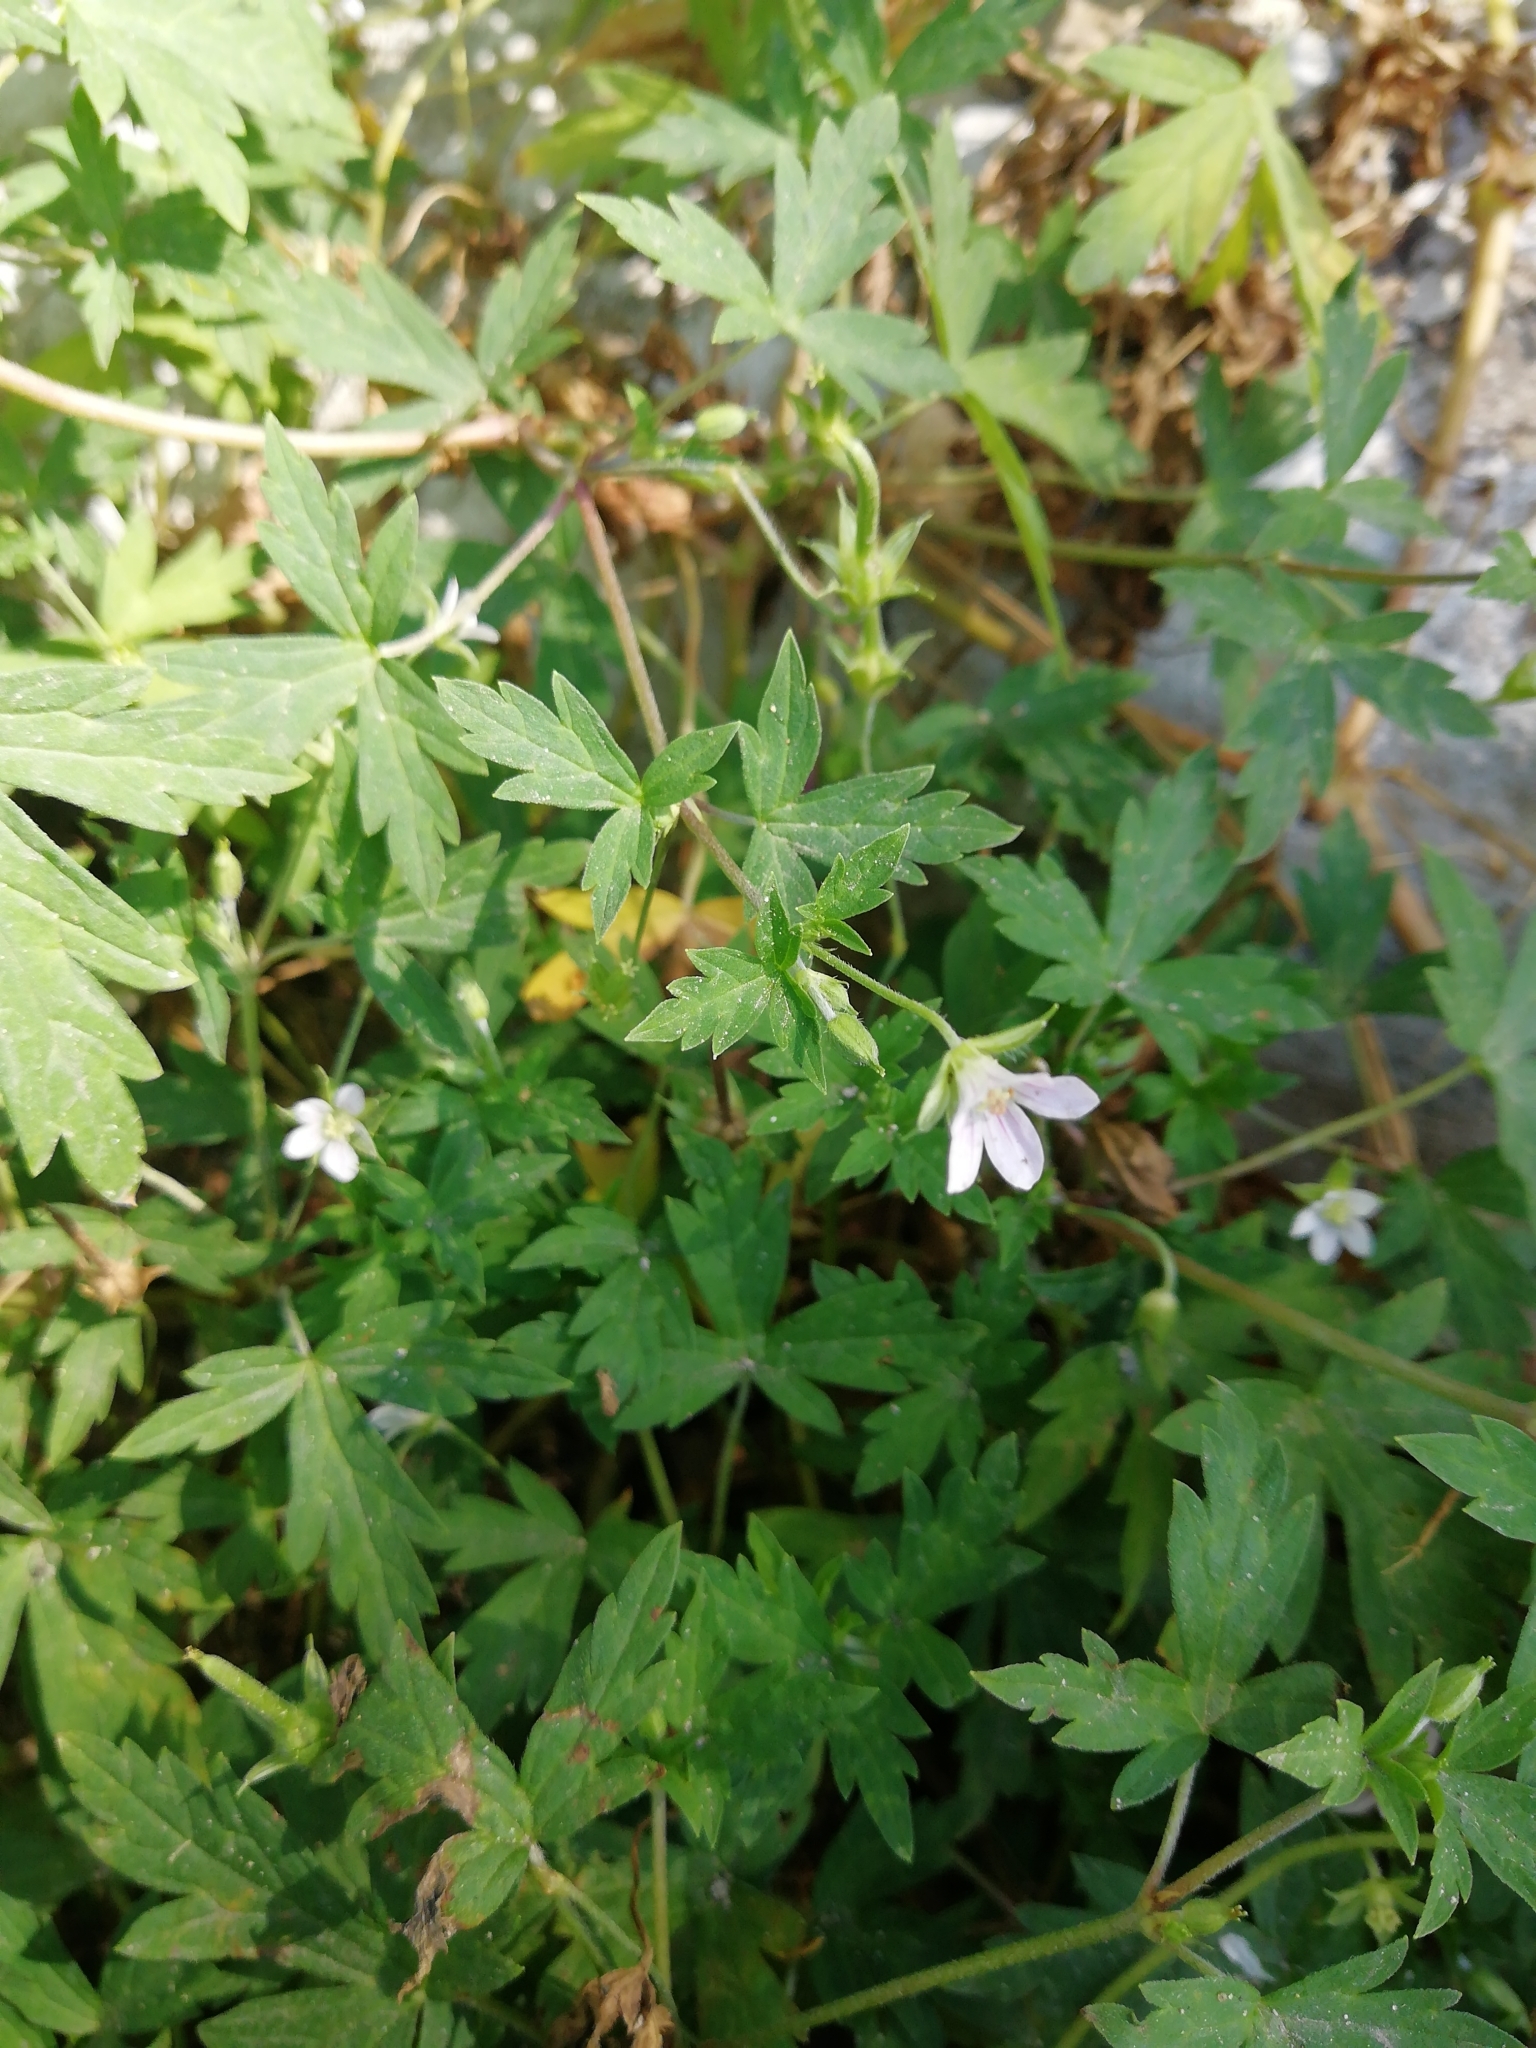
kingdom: Plantae
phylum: Tracheophyta
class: Magnoliopsida
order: Geraniales
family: Geraniaceae
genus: Geranium
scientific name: Geranium sibiricum
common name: Siberian crane's-bill
